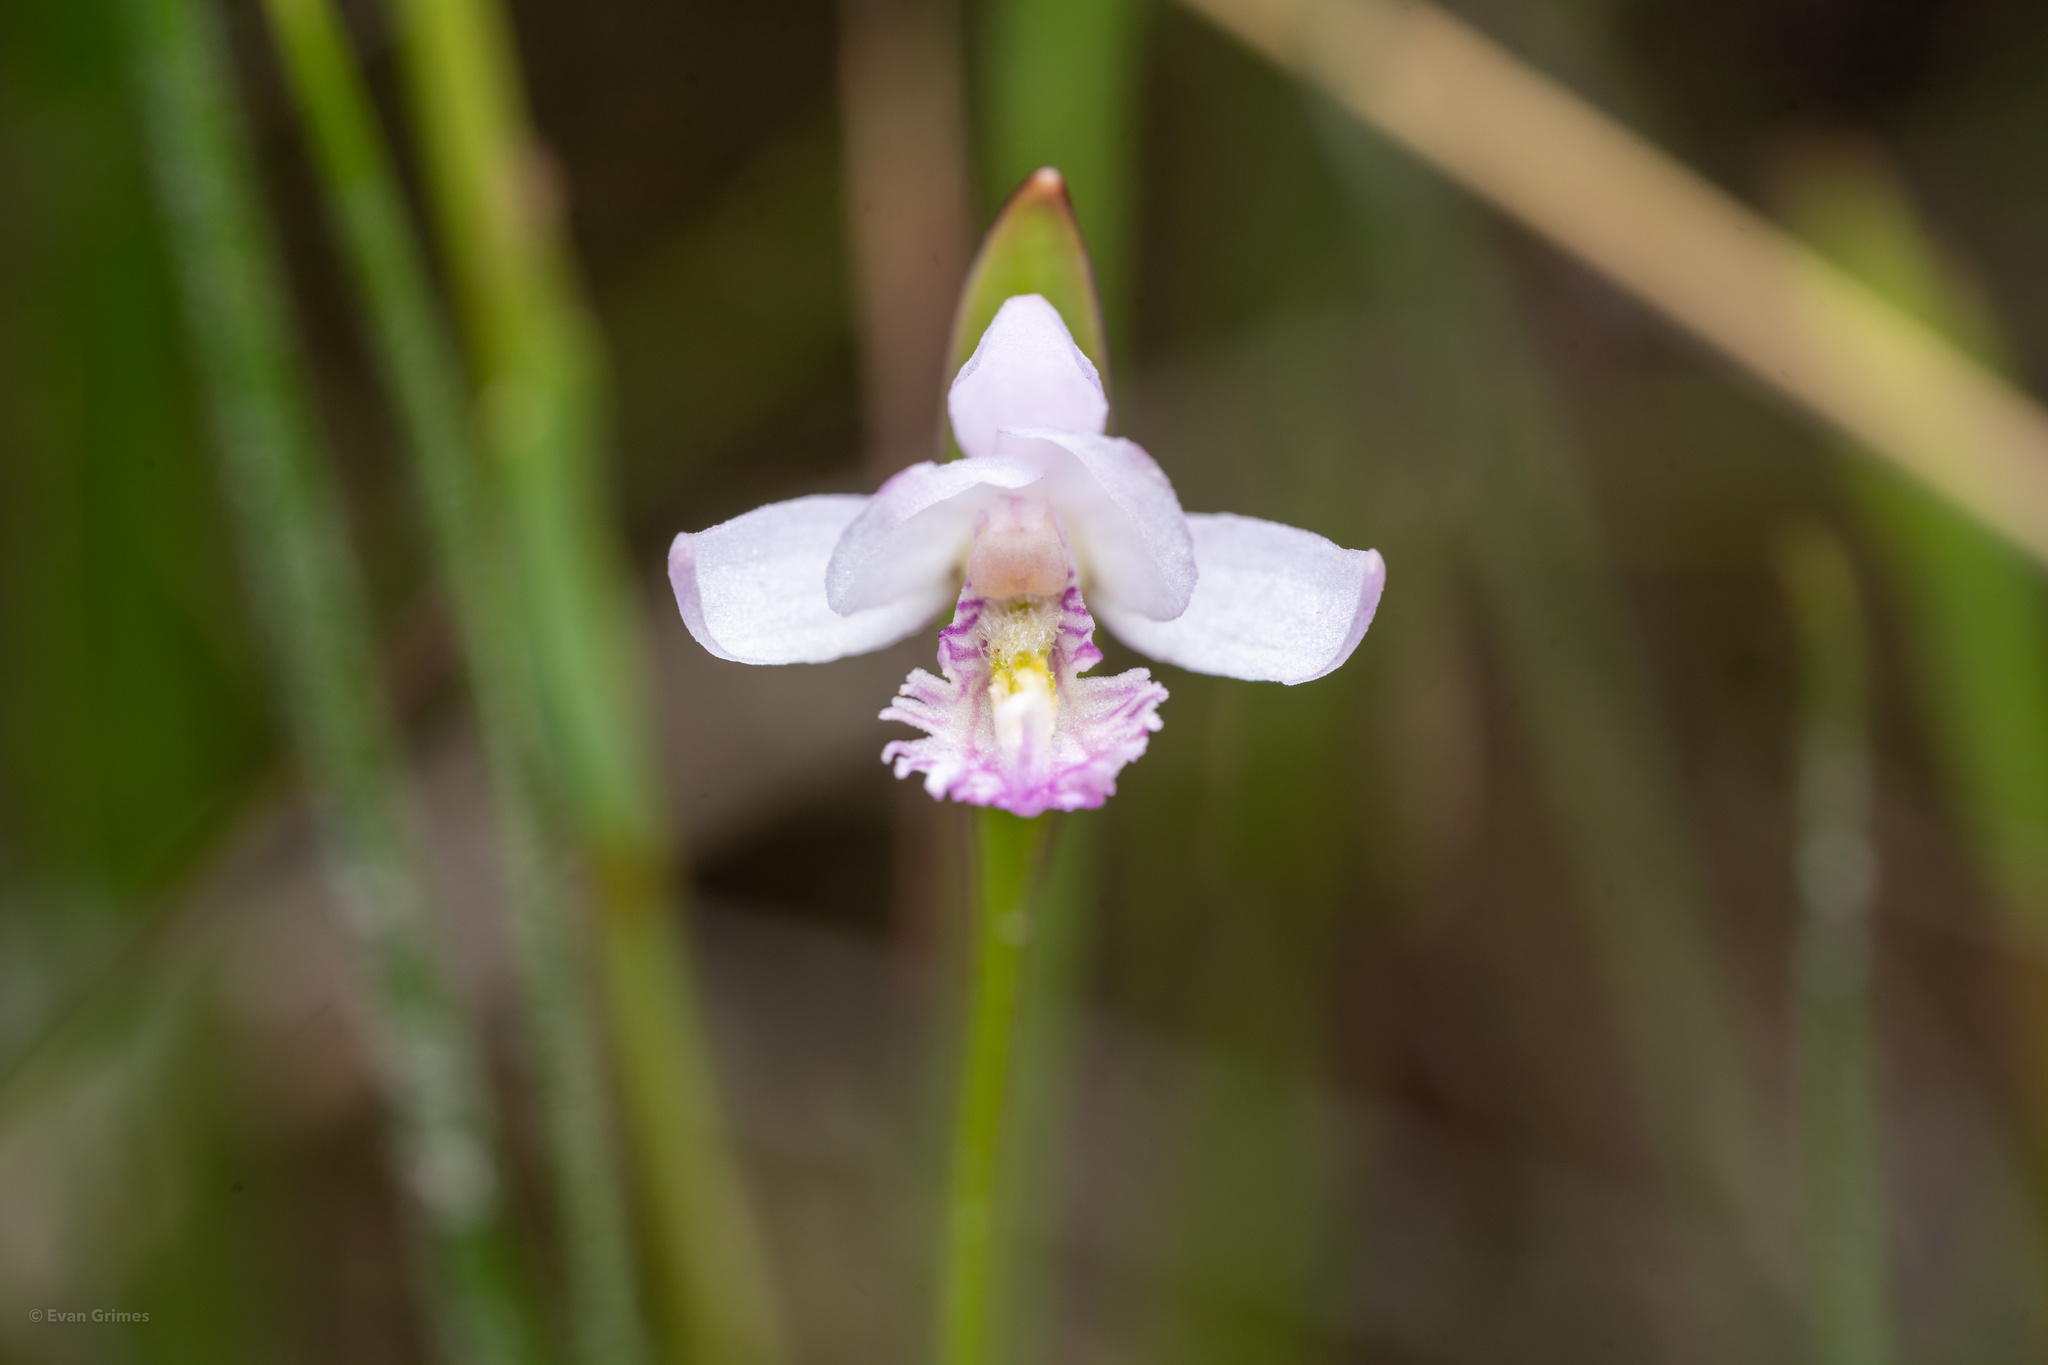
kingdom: Plantae
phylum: Tracheophyta
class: Liliopsida
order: Asparagales
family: Orchidaceae
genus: Pogonia
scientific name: Pogonia ophioglossoides
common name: Rose pogonia
